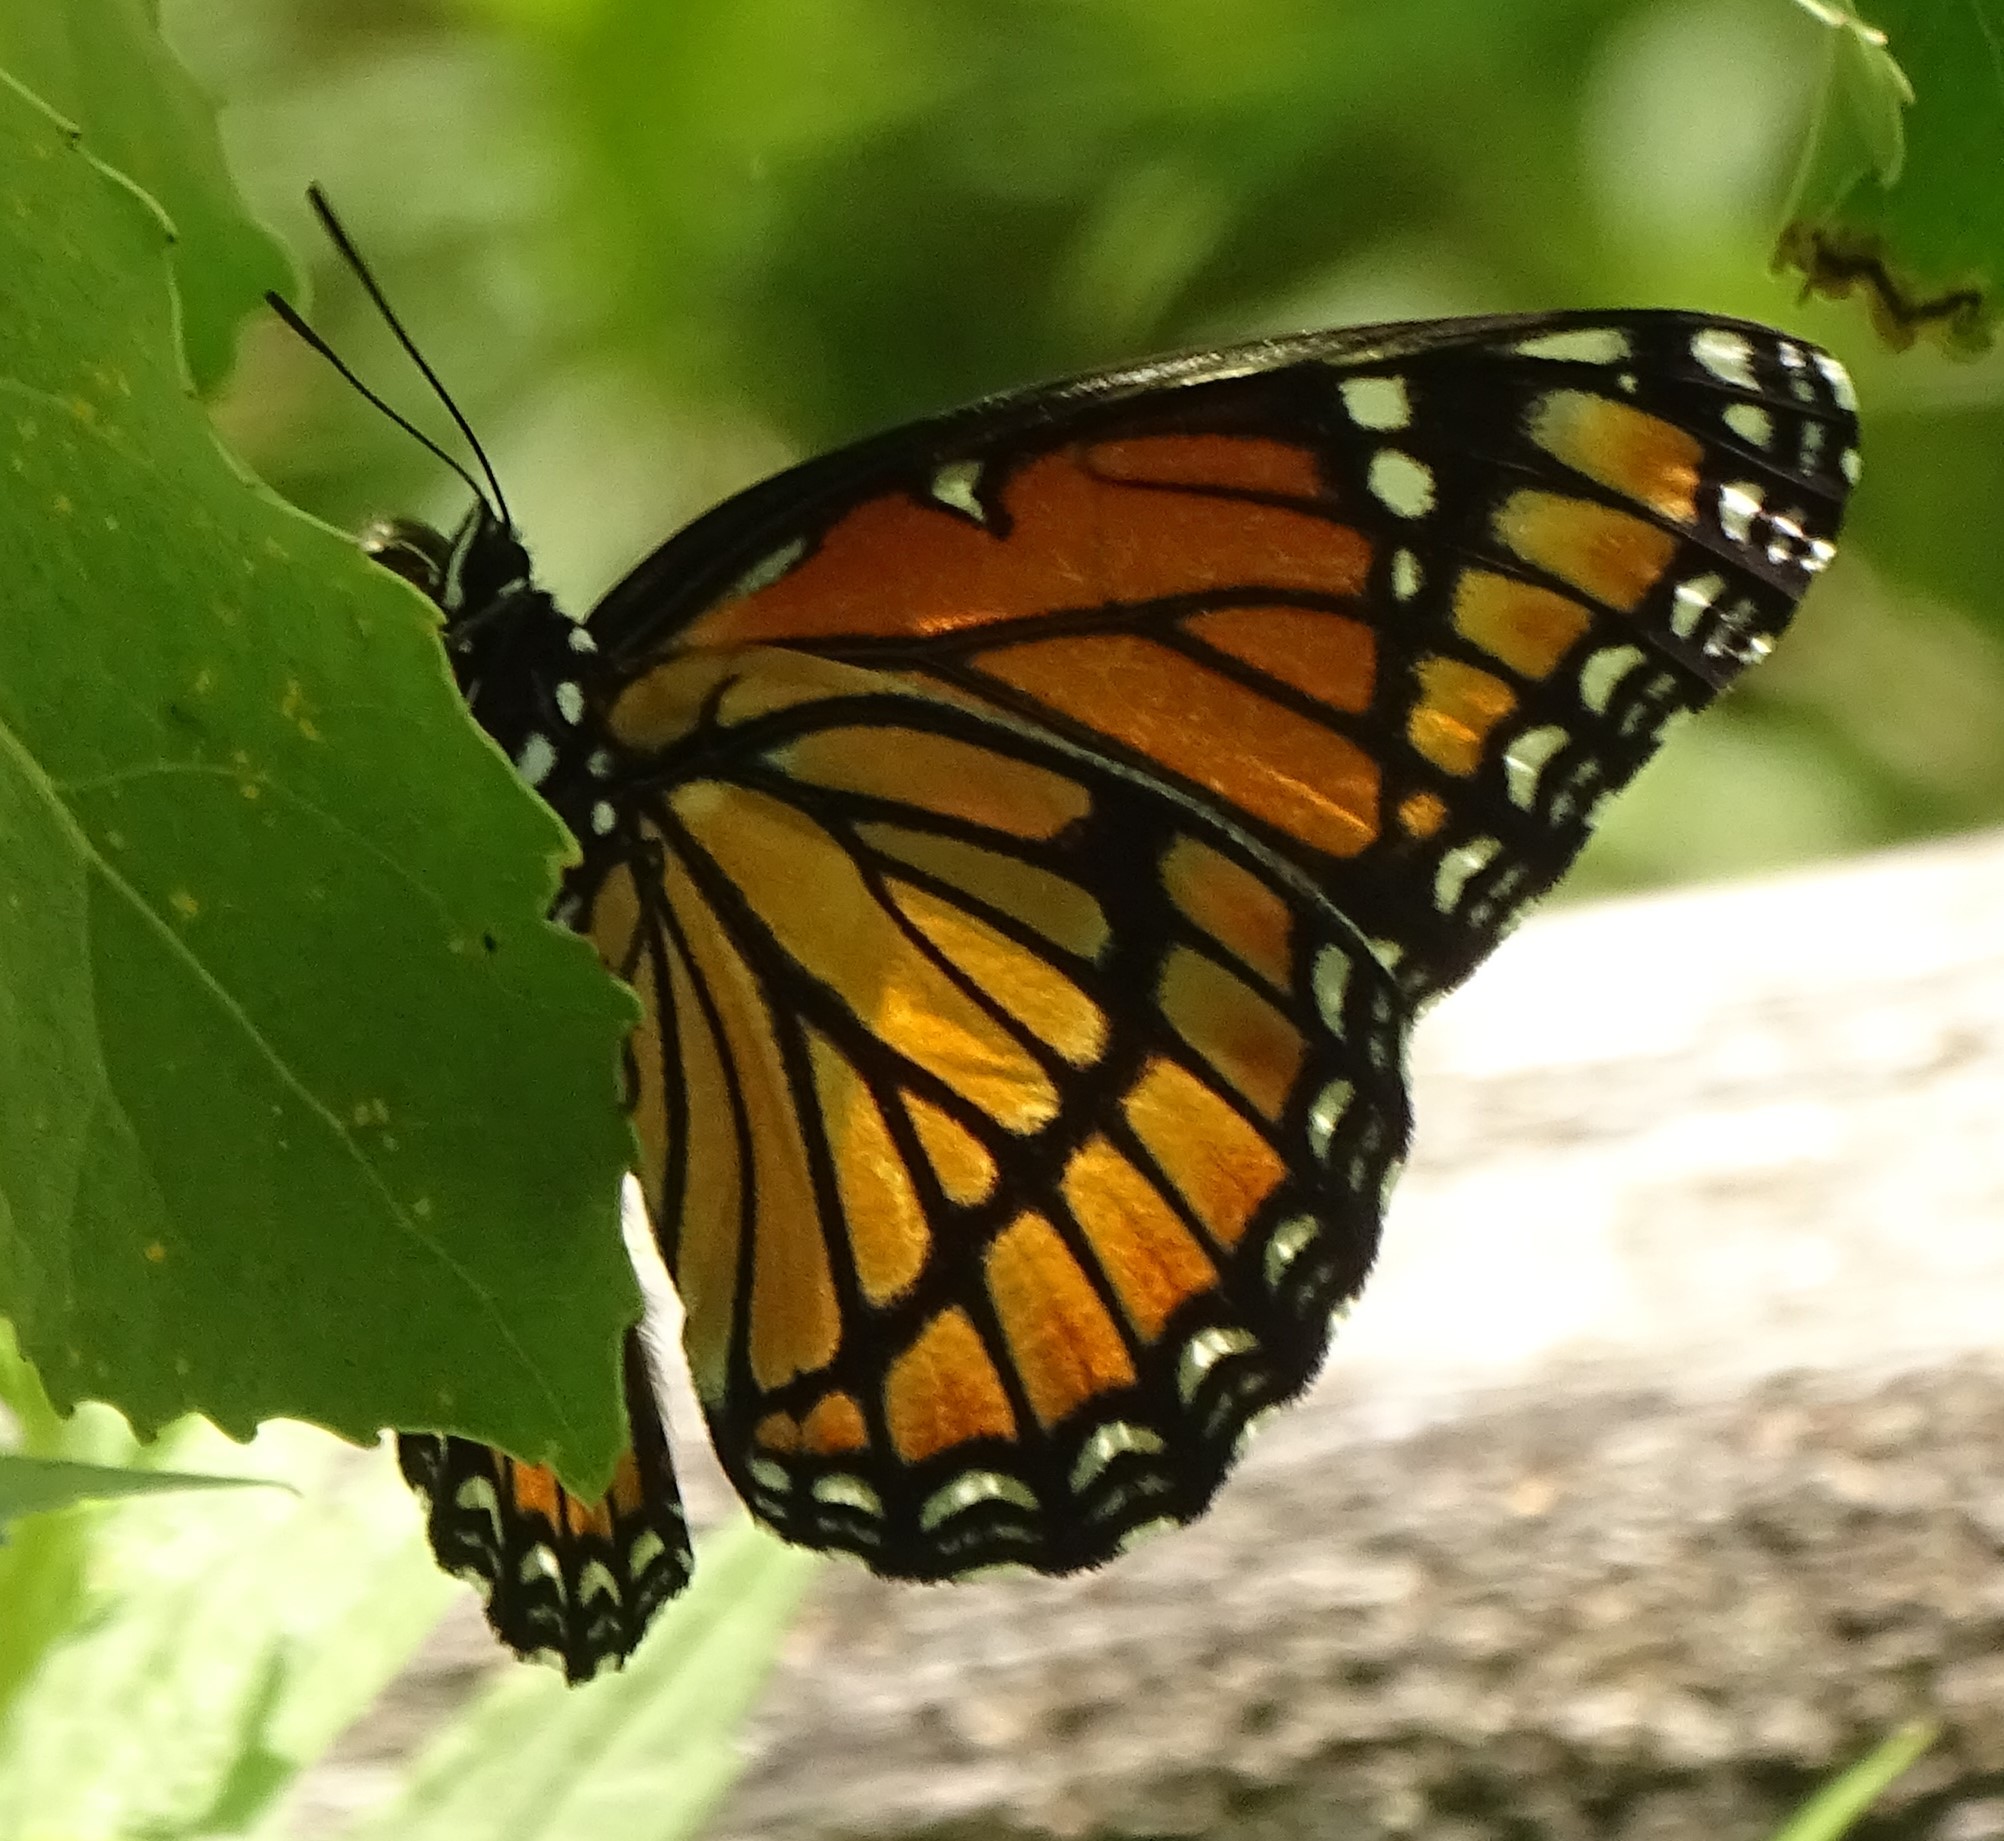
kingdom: Animalia
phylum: Arthropoda
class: Insecta
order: Lepidoptera
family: Nymphalidae
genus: Limenitis
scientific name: Limenitis archippus
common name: Viceroy
